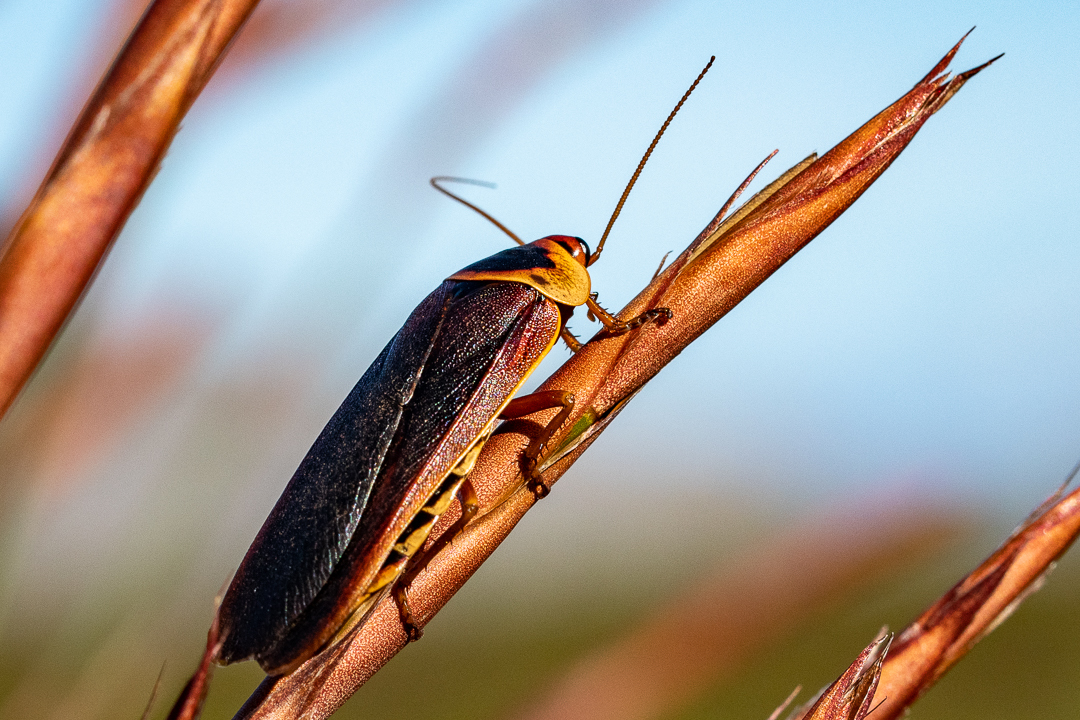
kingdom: Animalia
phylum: Arthropoda
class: Insecta
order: Blattodea
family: Blaberidae
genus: Aptera
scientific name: Aptera fusca
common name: Cape mountain cockroach
